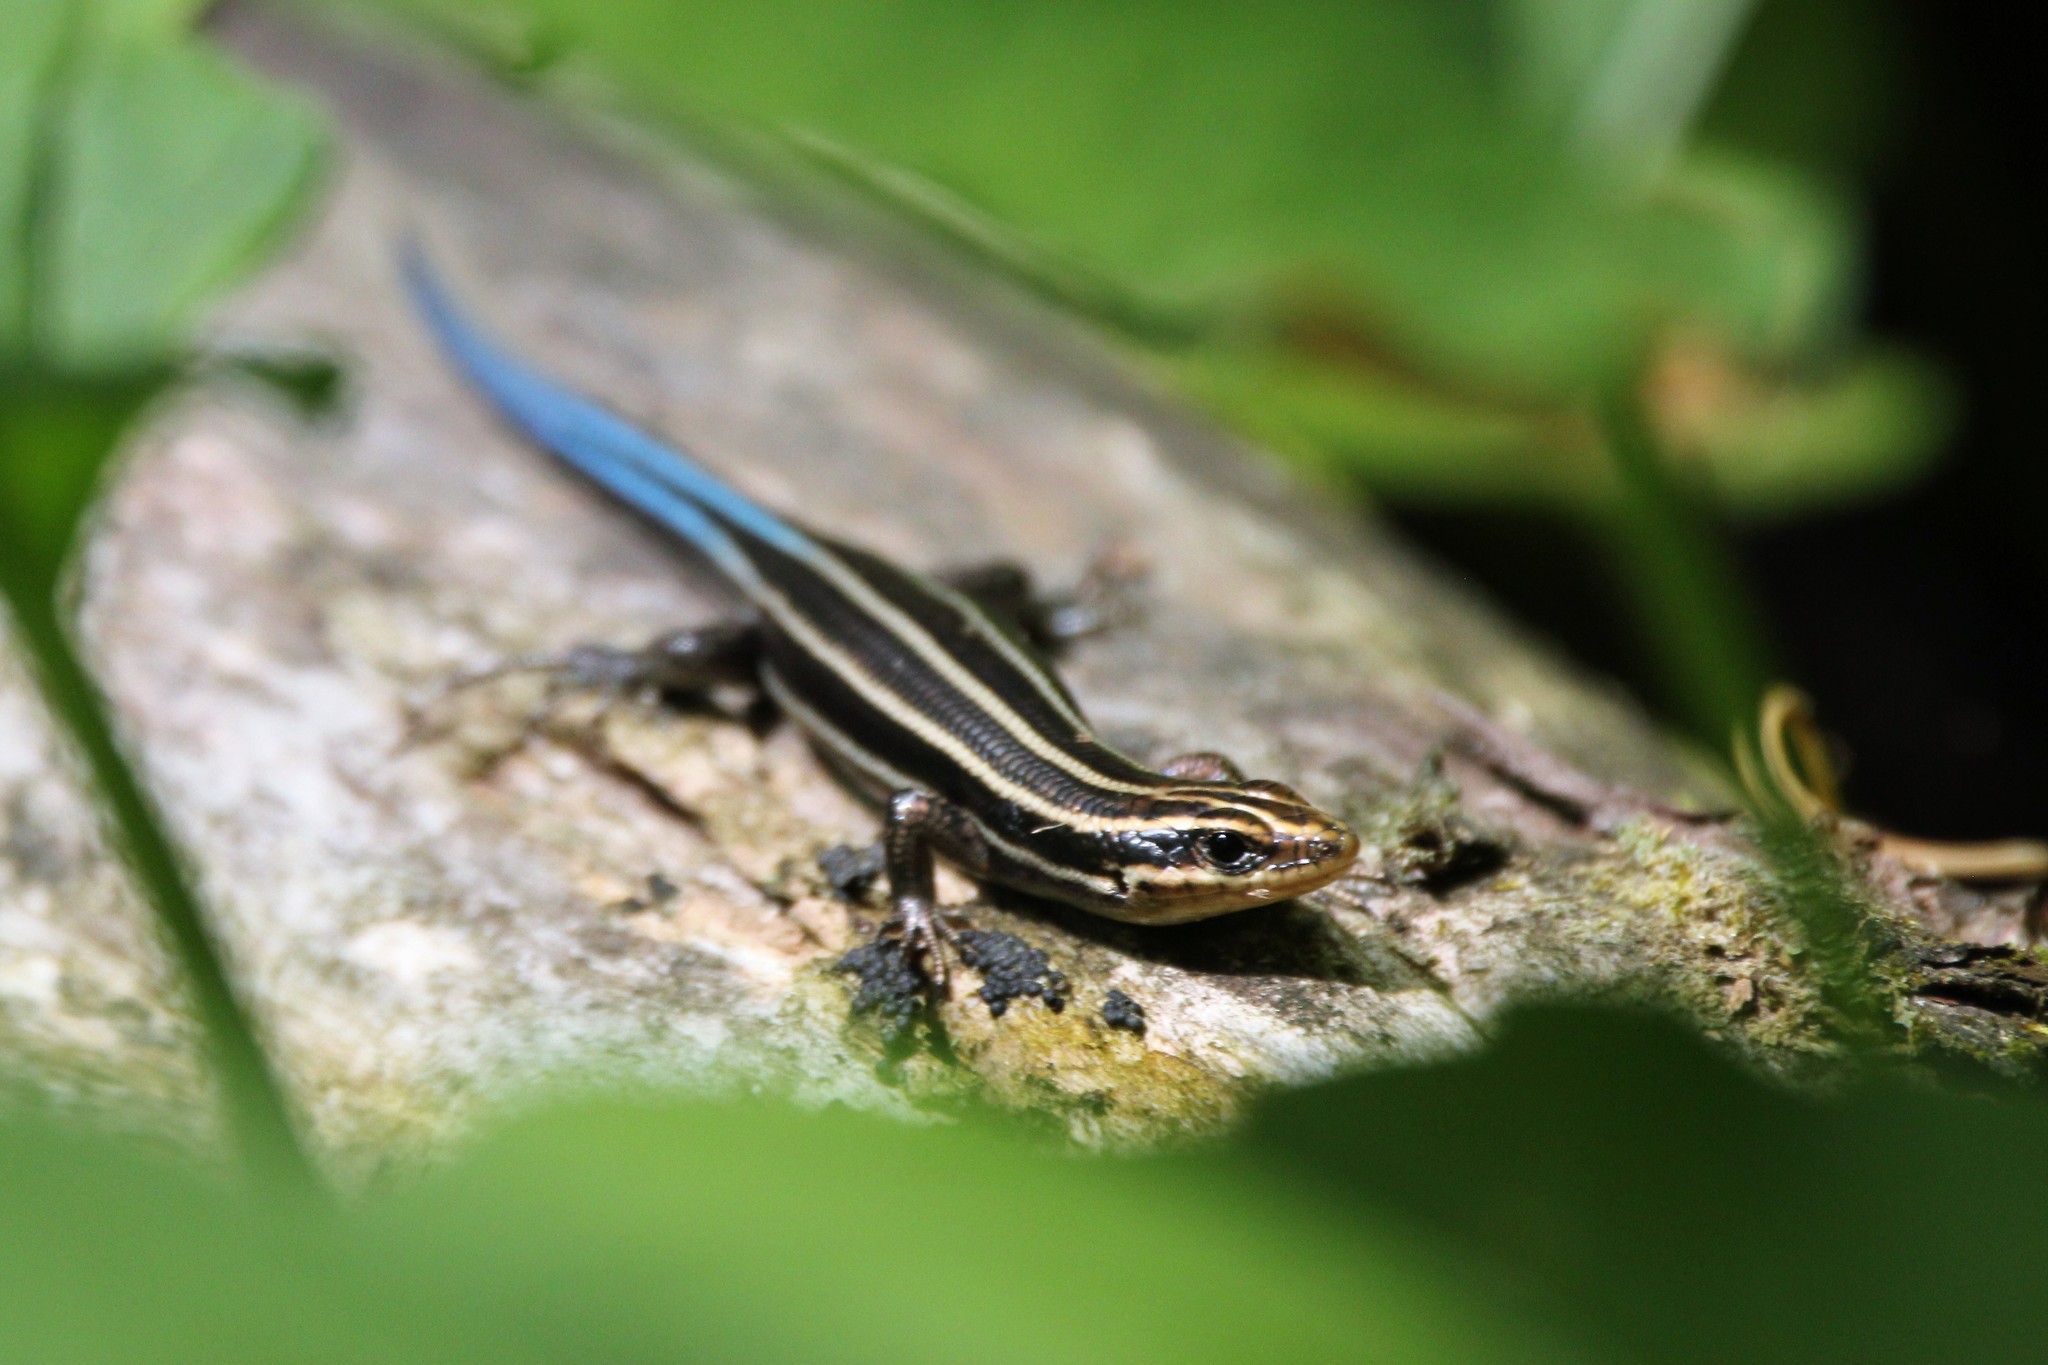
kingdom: Animalia
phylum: Chordata
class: Squamata
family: Scincidae
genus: Plestiodon
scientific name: Plestiodon fasciatus
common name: Five-lined skink
